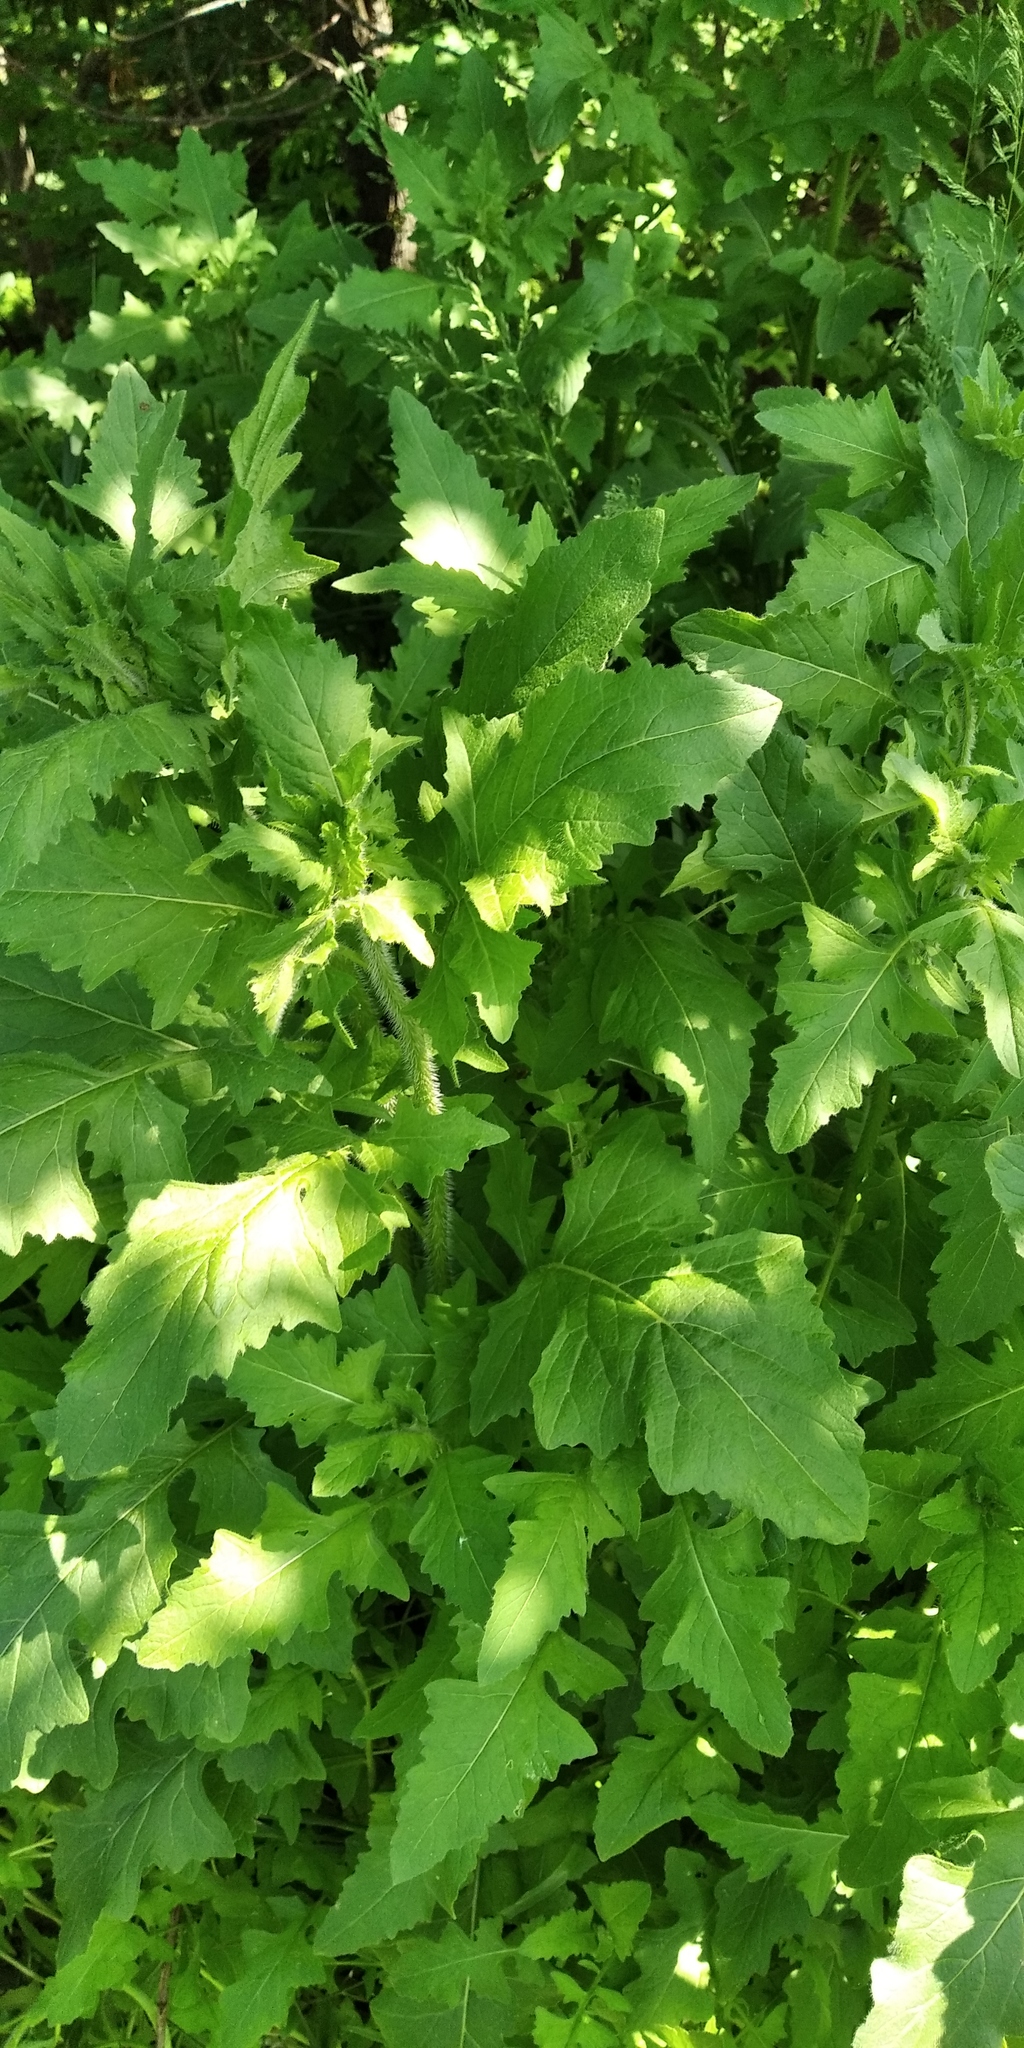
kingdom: Plantae
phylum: Tracheophyta
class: Magnoliopsida
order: Brassicales
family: Brassicaceae
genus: Sisymbrium
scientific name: Sisymbrium loeselii
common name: False london-rocket
